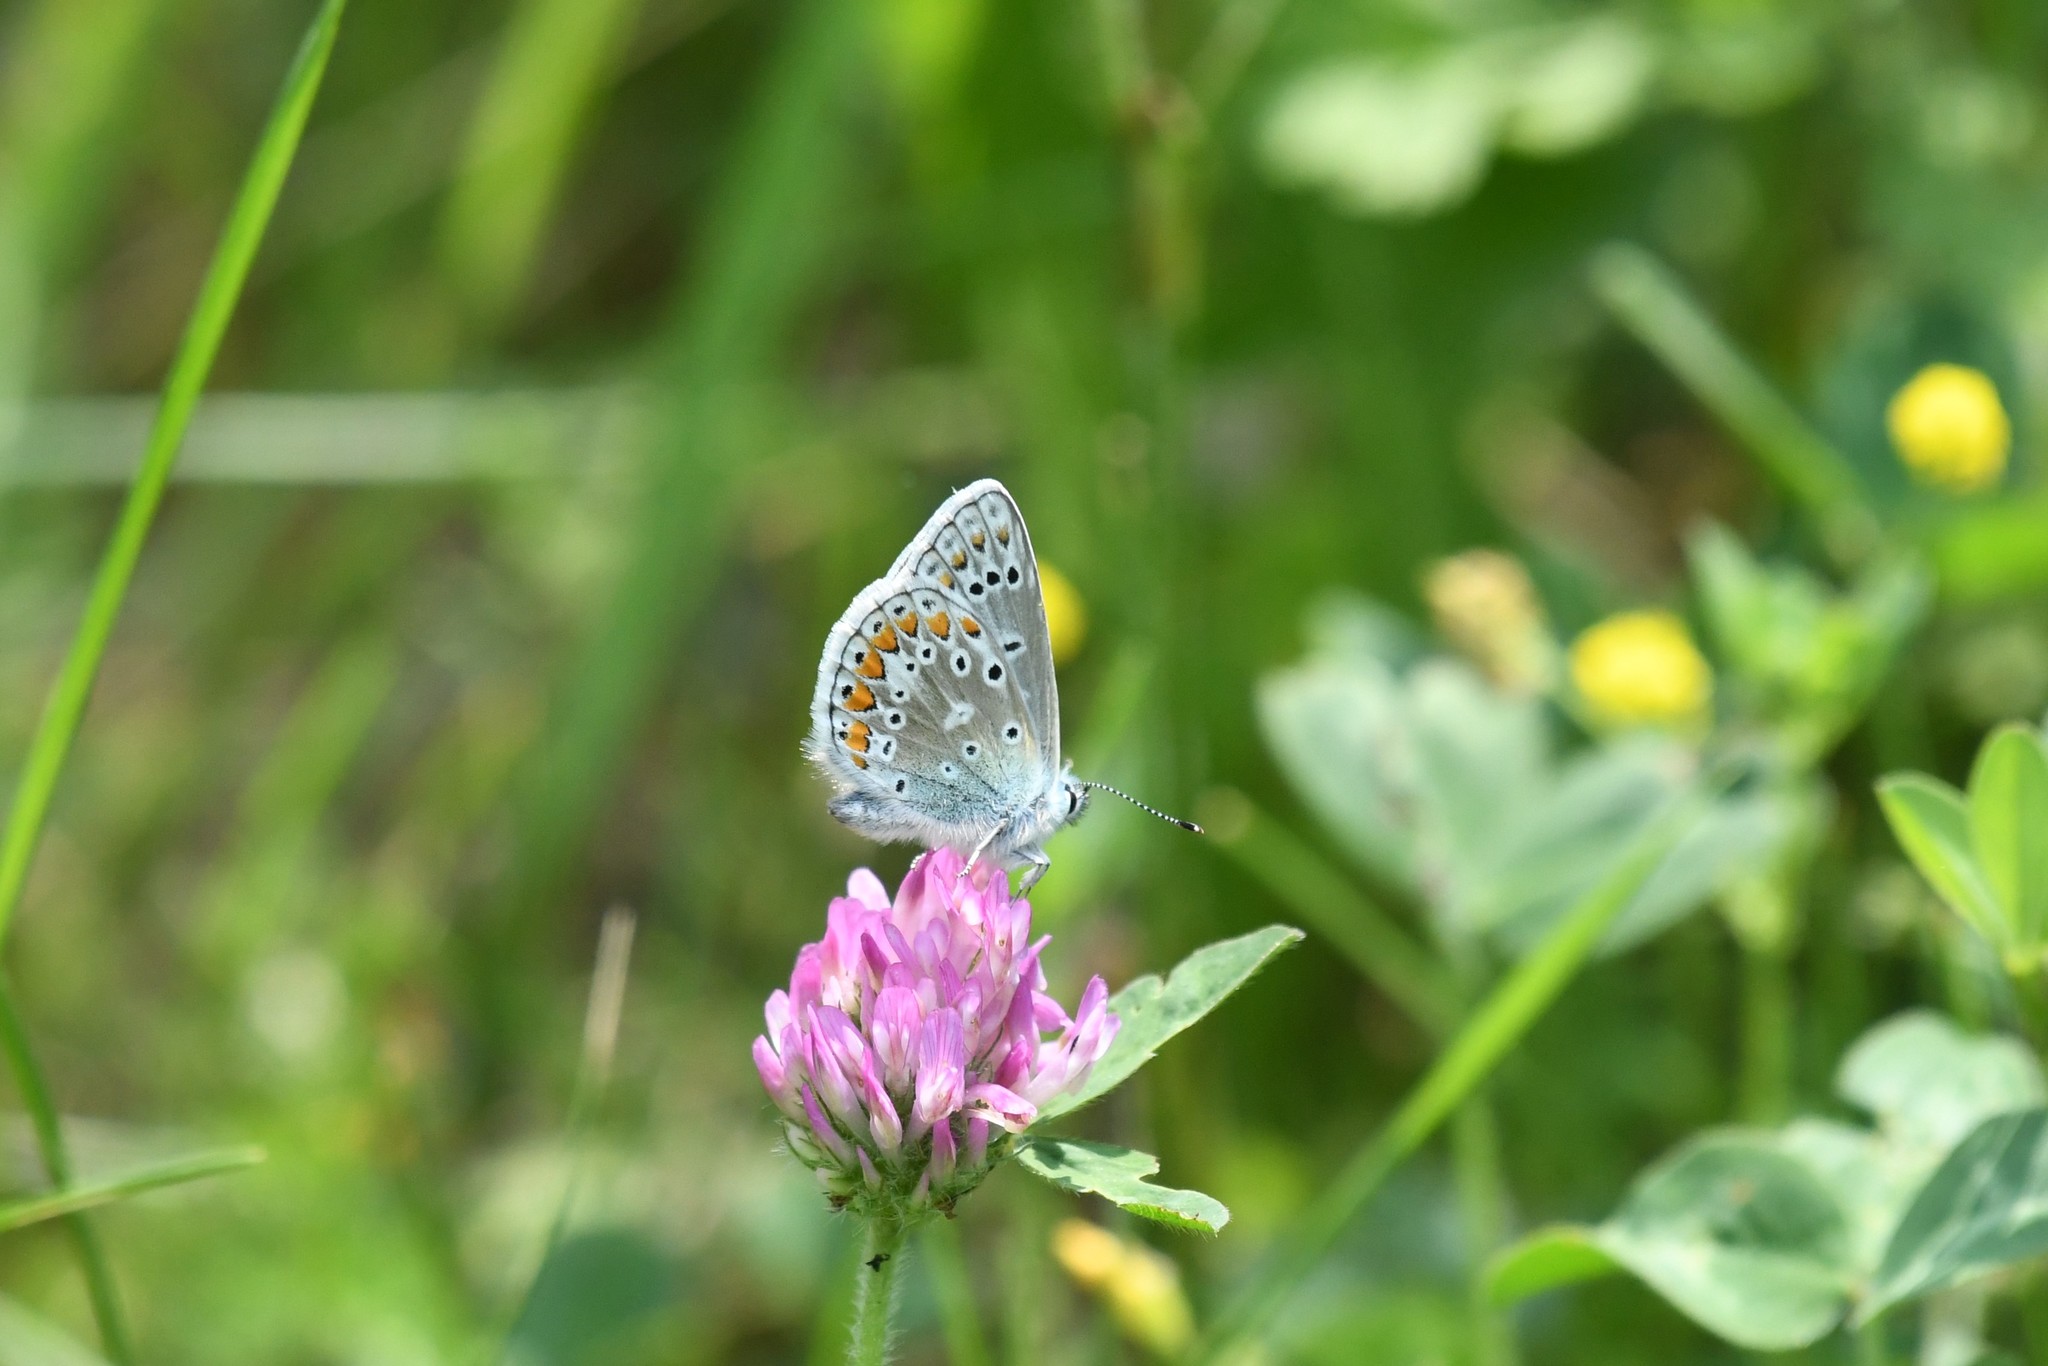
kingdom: Animalia
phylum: Arthropoda
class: Insecta
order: Lepidoptera
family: Lycaenidae
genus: Polyommatus
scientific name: Polyommatus icarus
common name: Common blue
